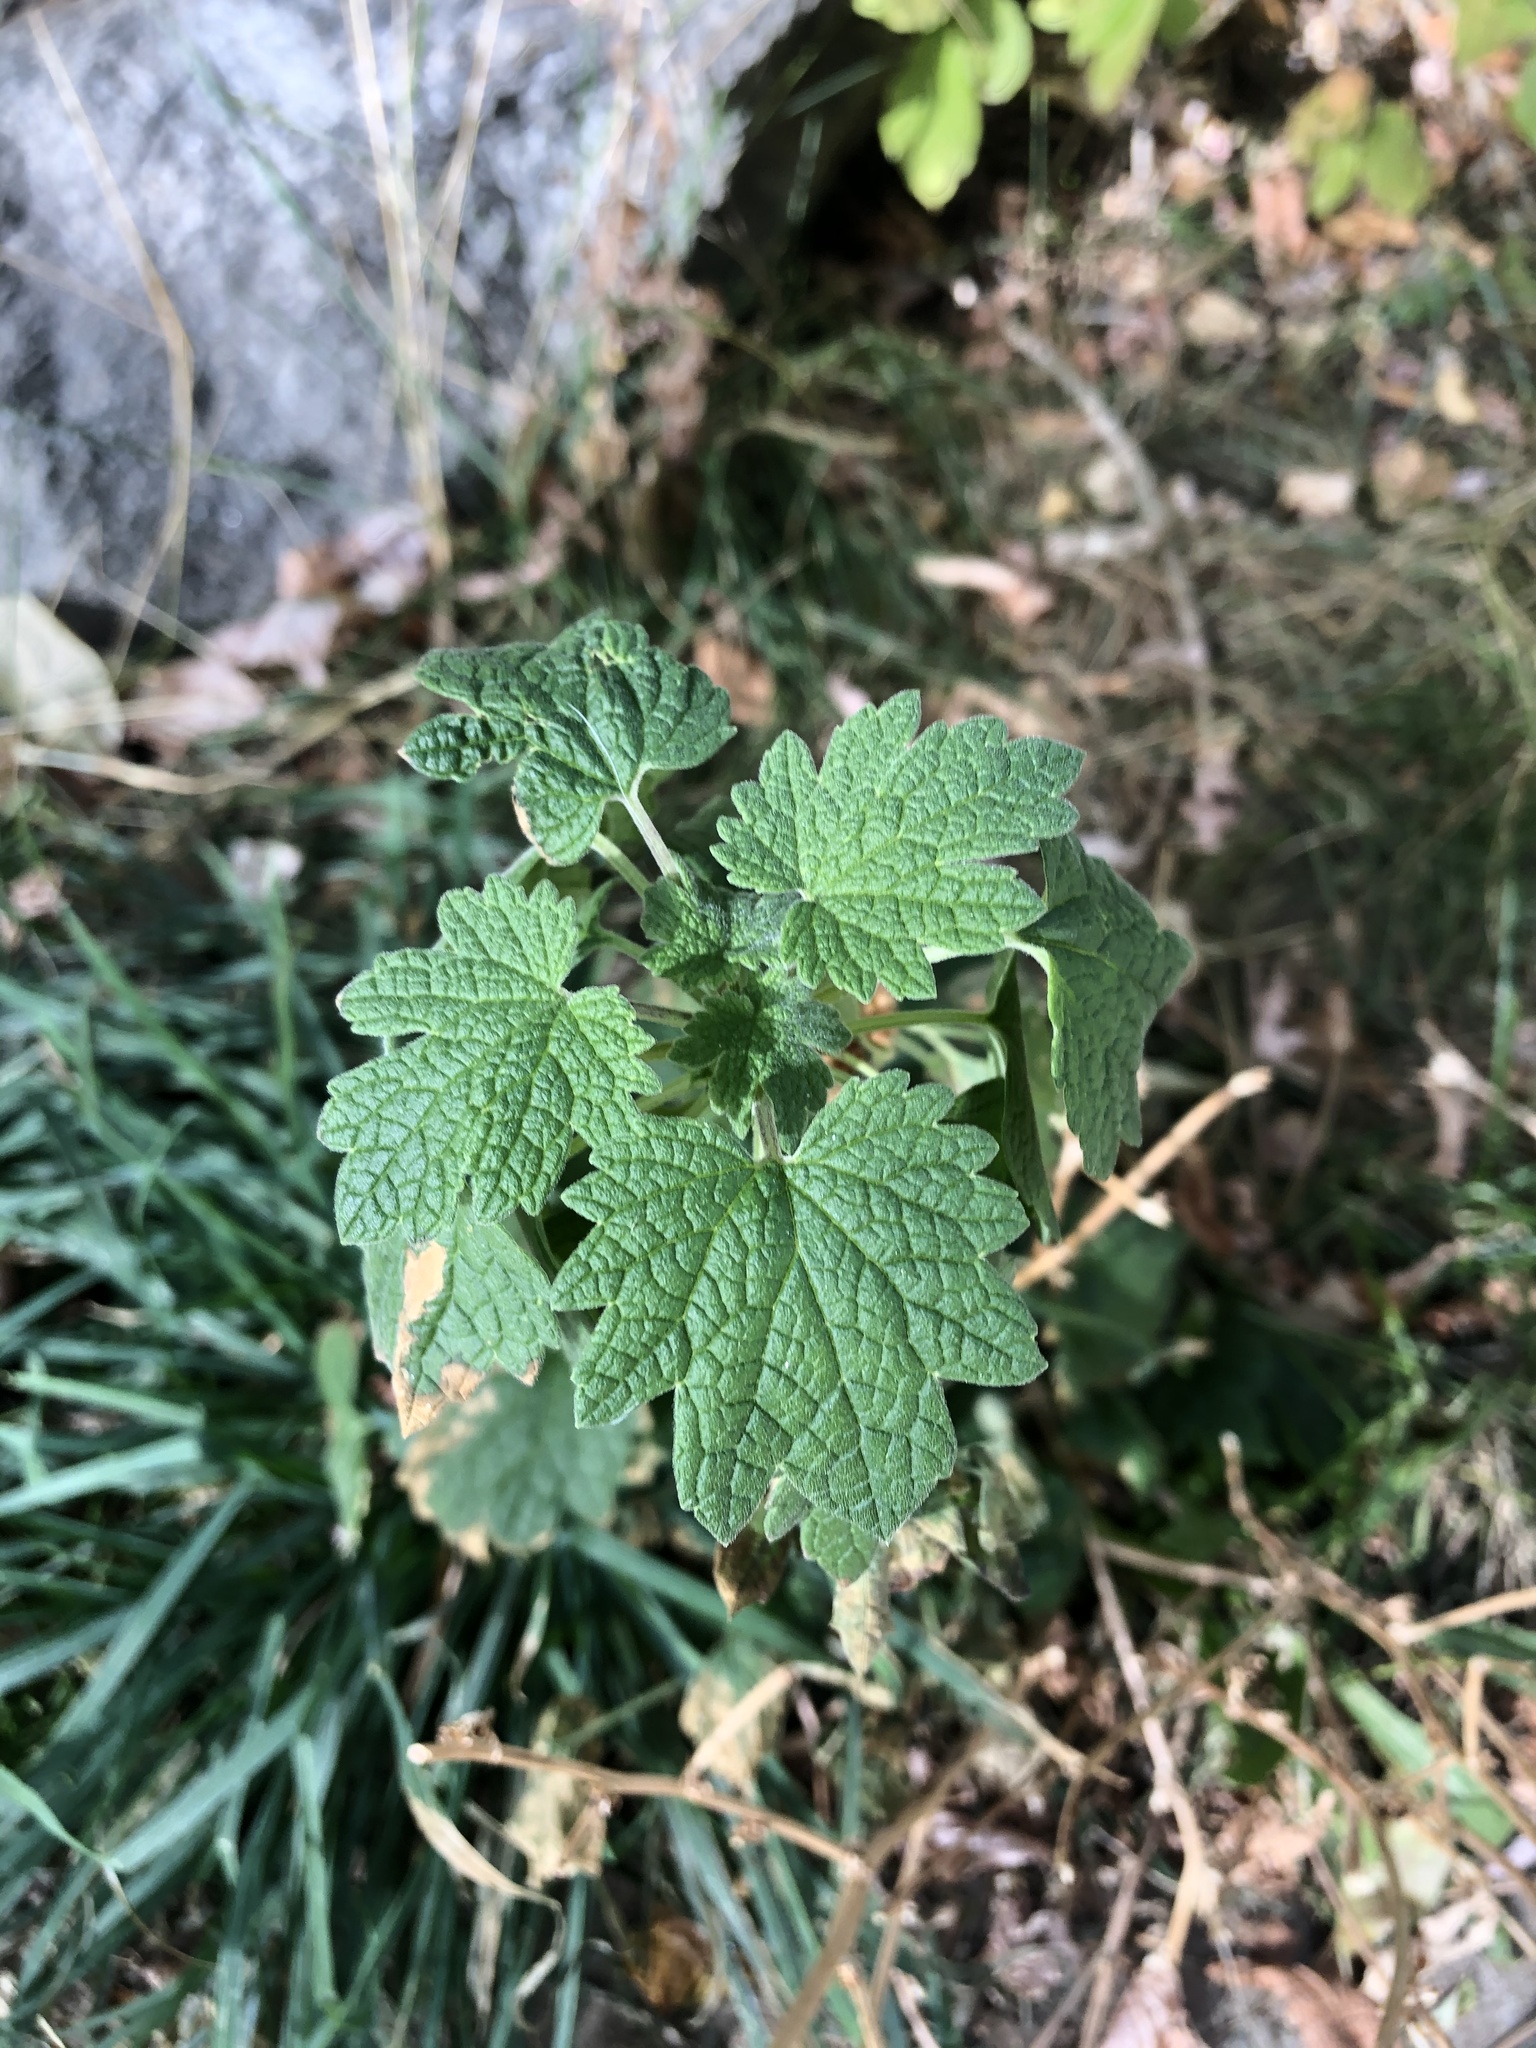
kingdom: Plantae
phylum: Tracheophyta
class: Magnoliopsida
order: Lamiales
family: Lamiaceae
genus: Leonurus
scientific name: Leonurus cardiaca
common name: Motherwort
